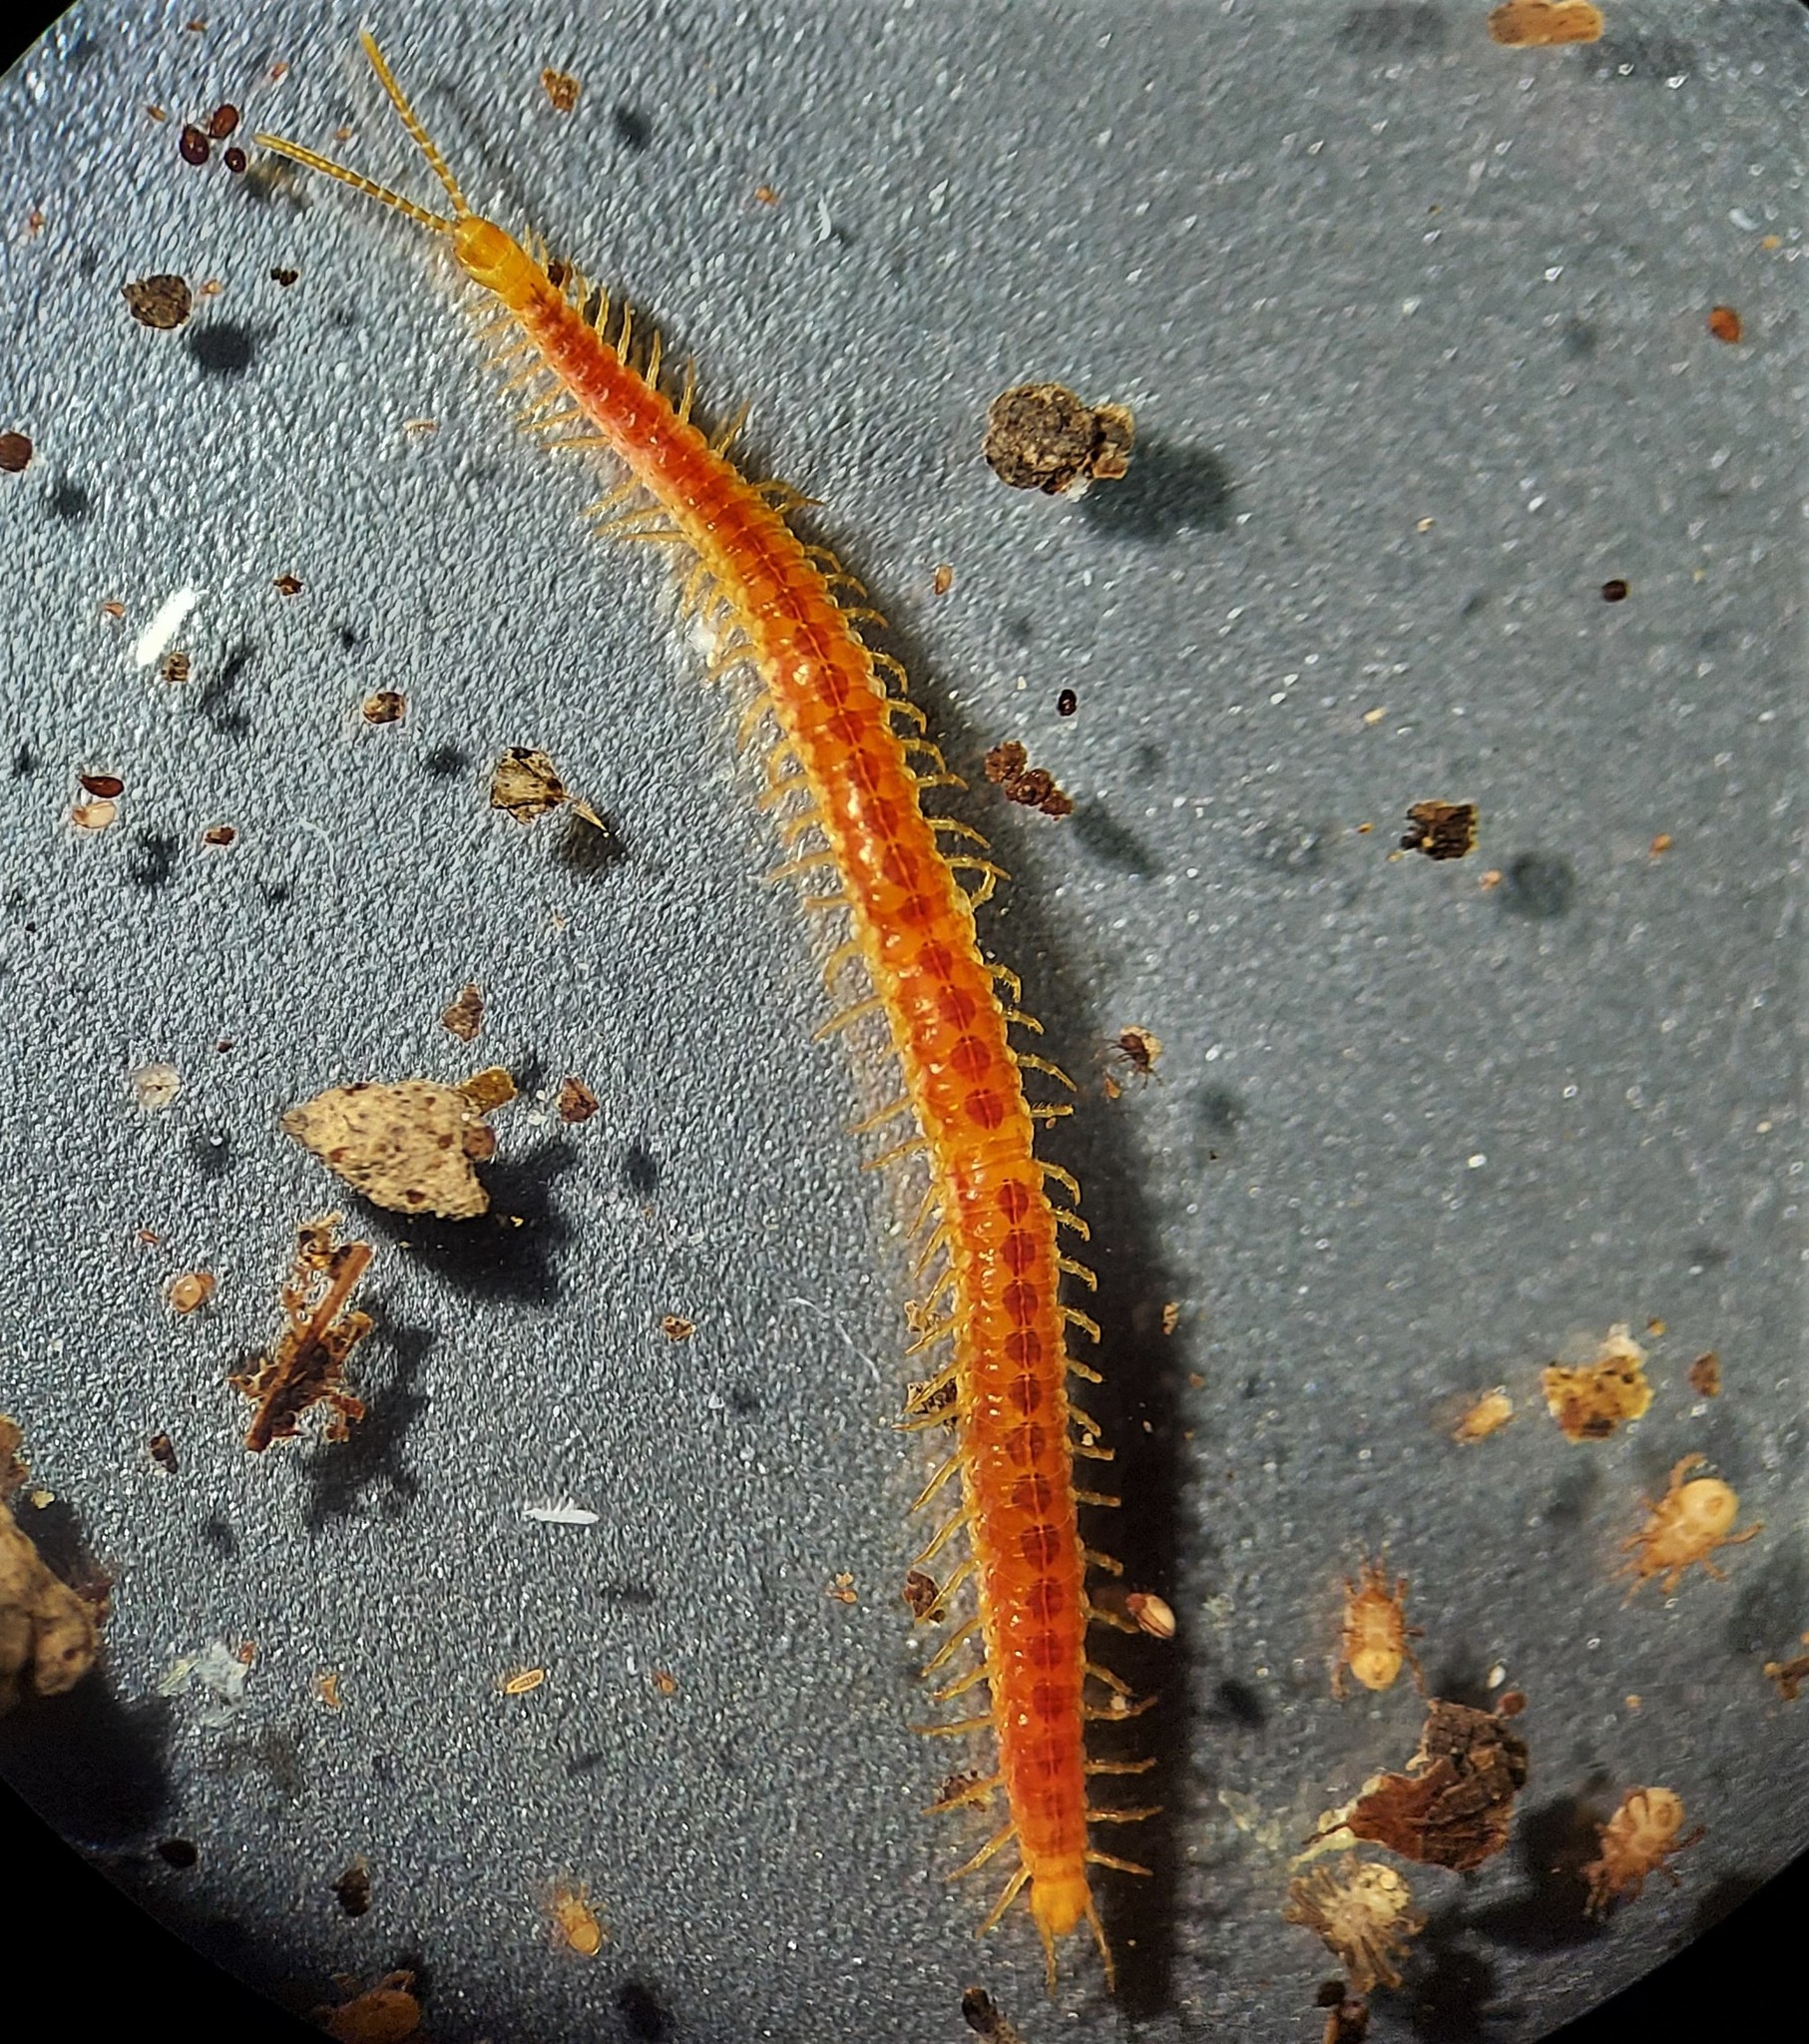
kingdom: Animalia
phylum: Arthropoda
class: Chilopoda
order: Geophilomorpha
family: Linotaeniidae
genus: Strigamia
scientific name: Strigamia branneri
